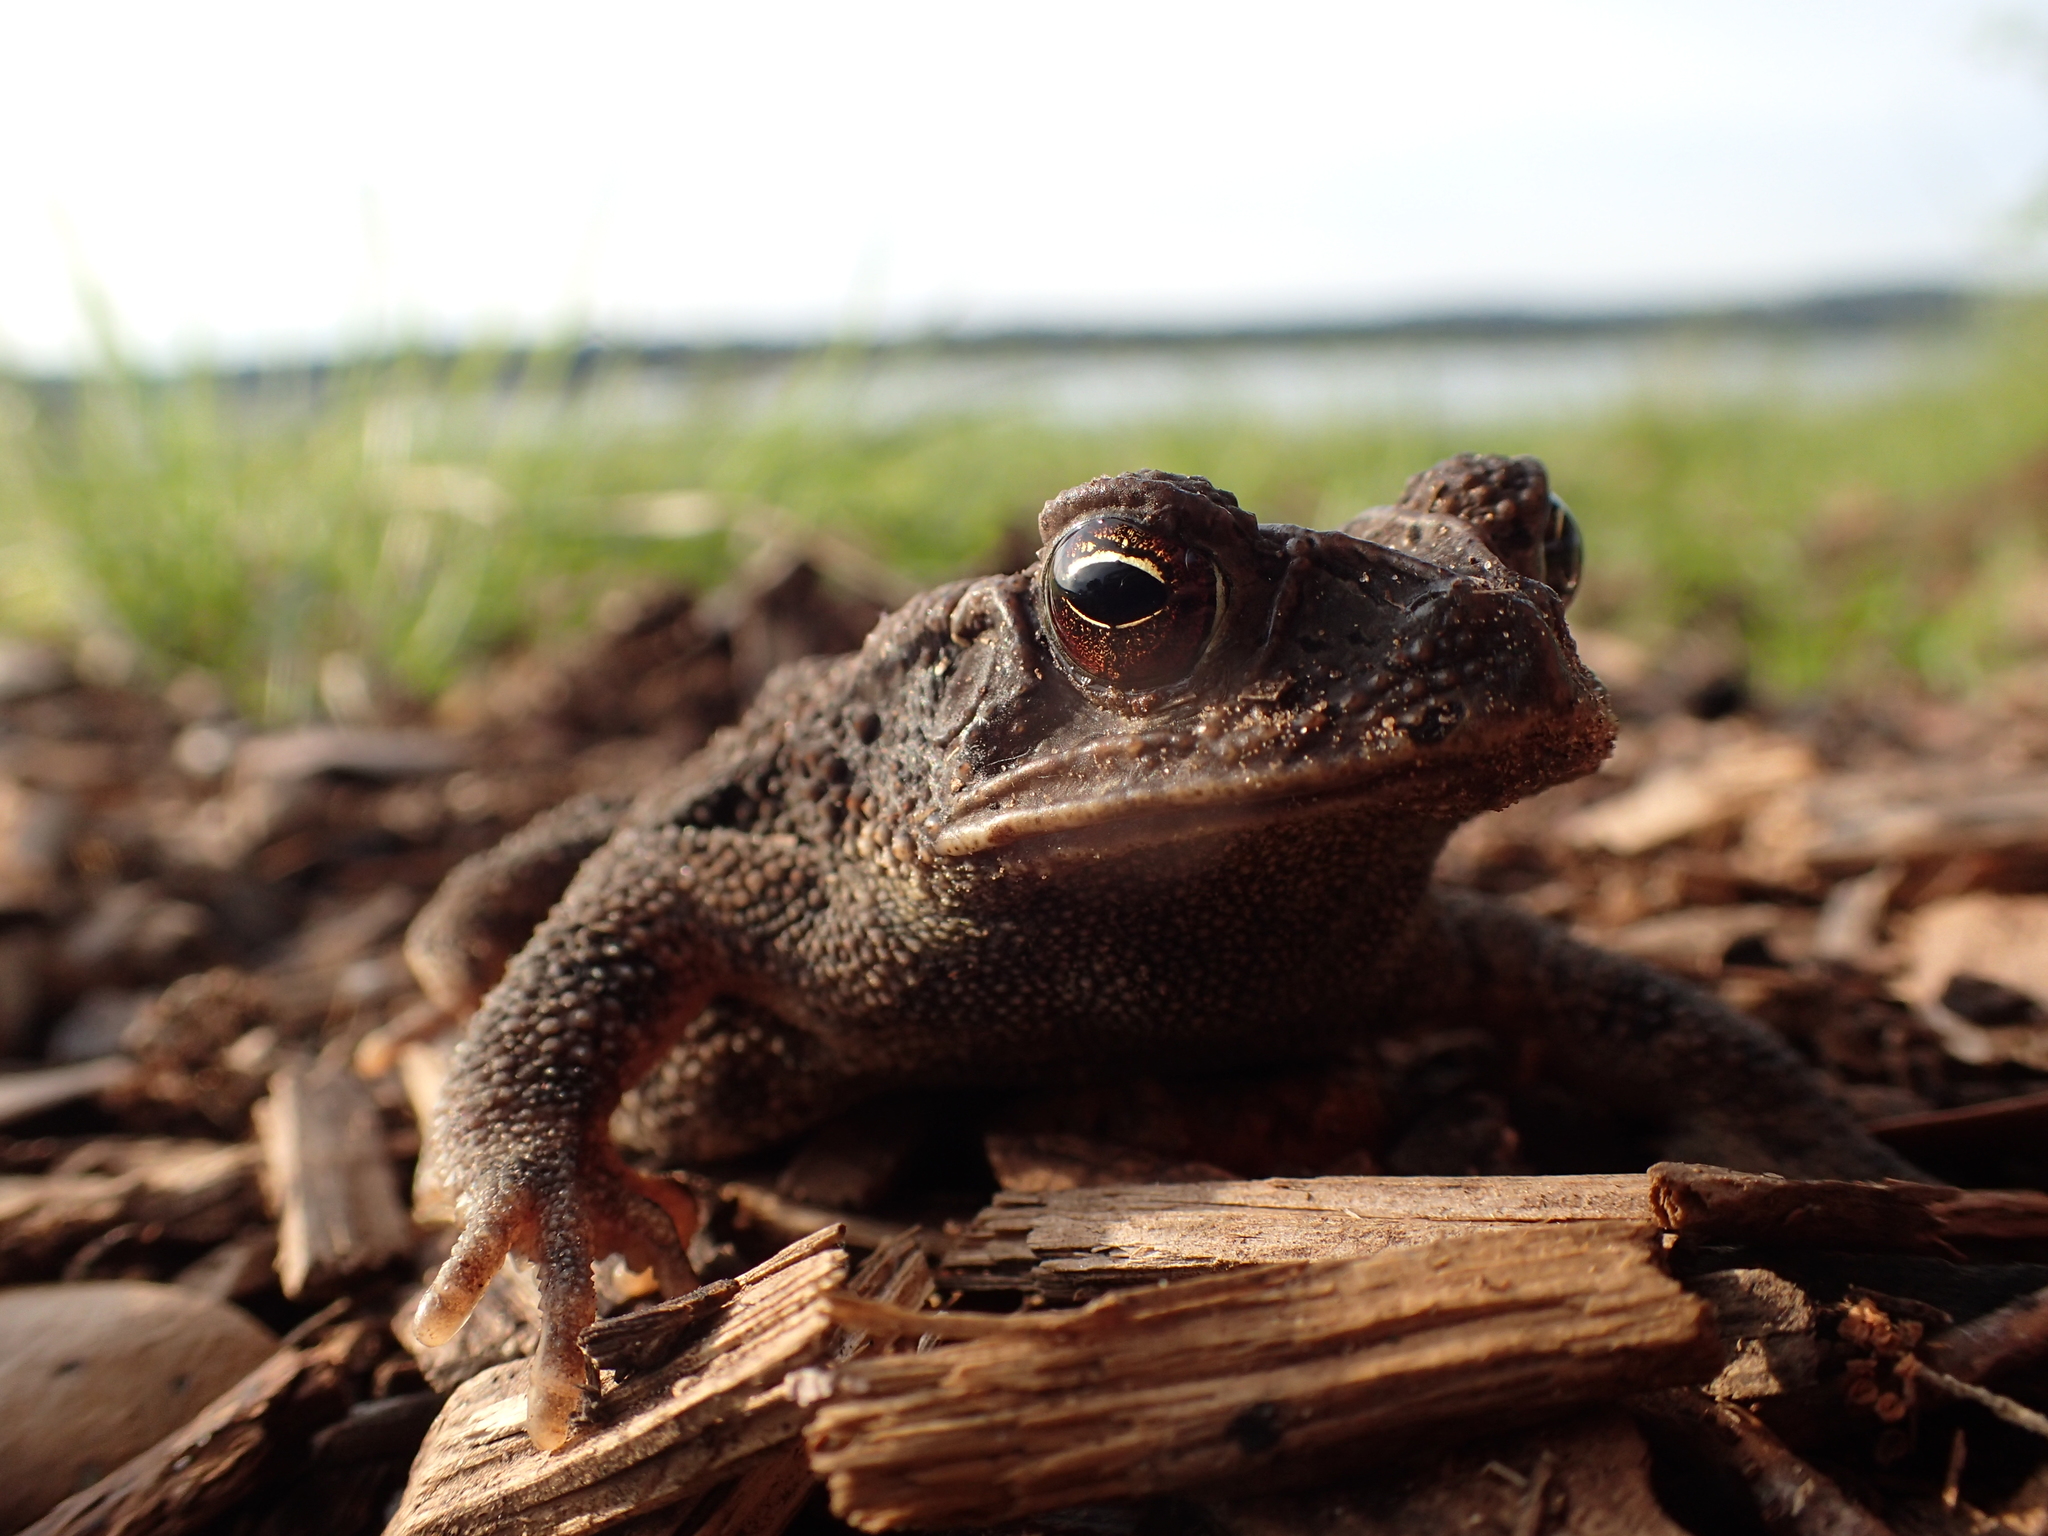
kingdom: Animalia
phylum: Chordata
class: Amphibia
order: Anura
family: Bufonidae
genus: Incilius
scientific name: Incilius nebulifer
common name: Gulf coast toad
